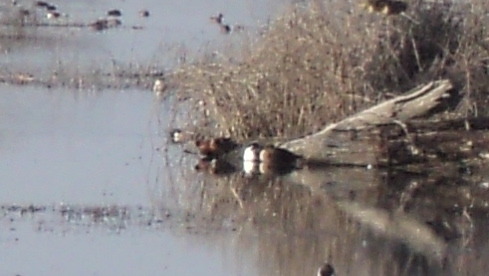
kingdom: Animalia
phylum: Chordata
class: Aves
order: Anseriformes
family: Anatidae
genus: Spatula
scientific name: Spatula cyanoptera
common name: Cinnamon teal
